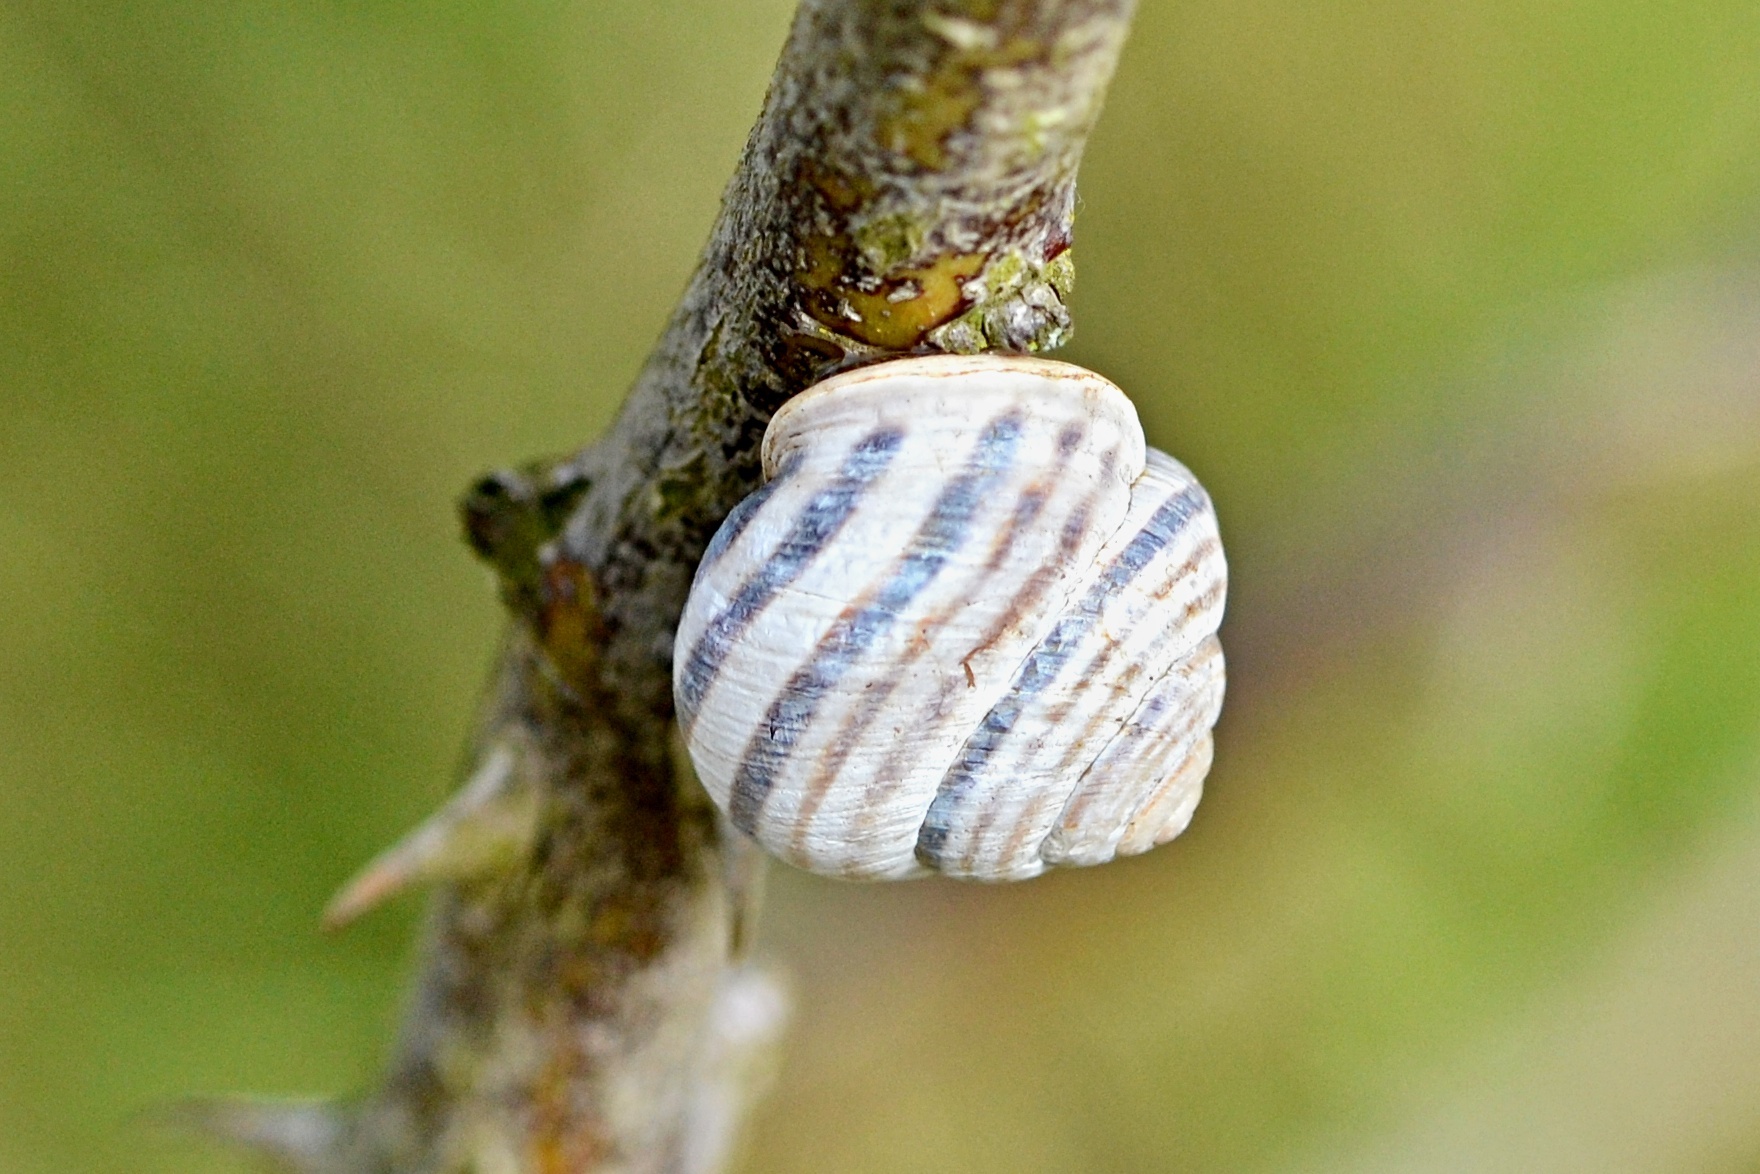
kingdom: Animalia
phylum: Mollusca
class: Gastropoda
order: Stylommatophora
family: Helicidae
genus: Caucasotachea
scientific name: Caucasotachea vindobonensis
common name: European helicid land snail
